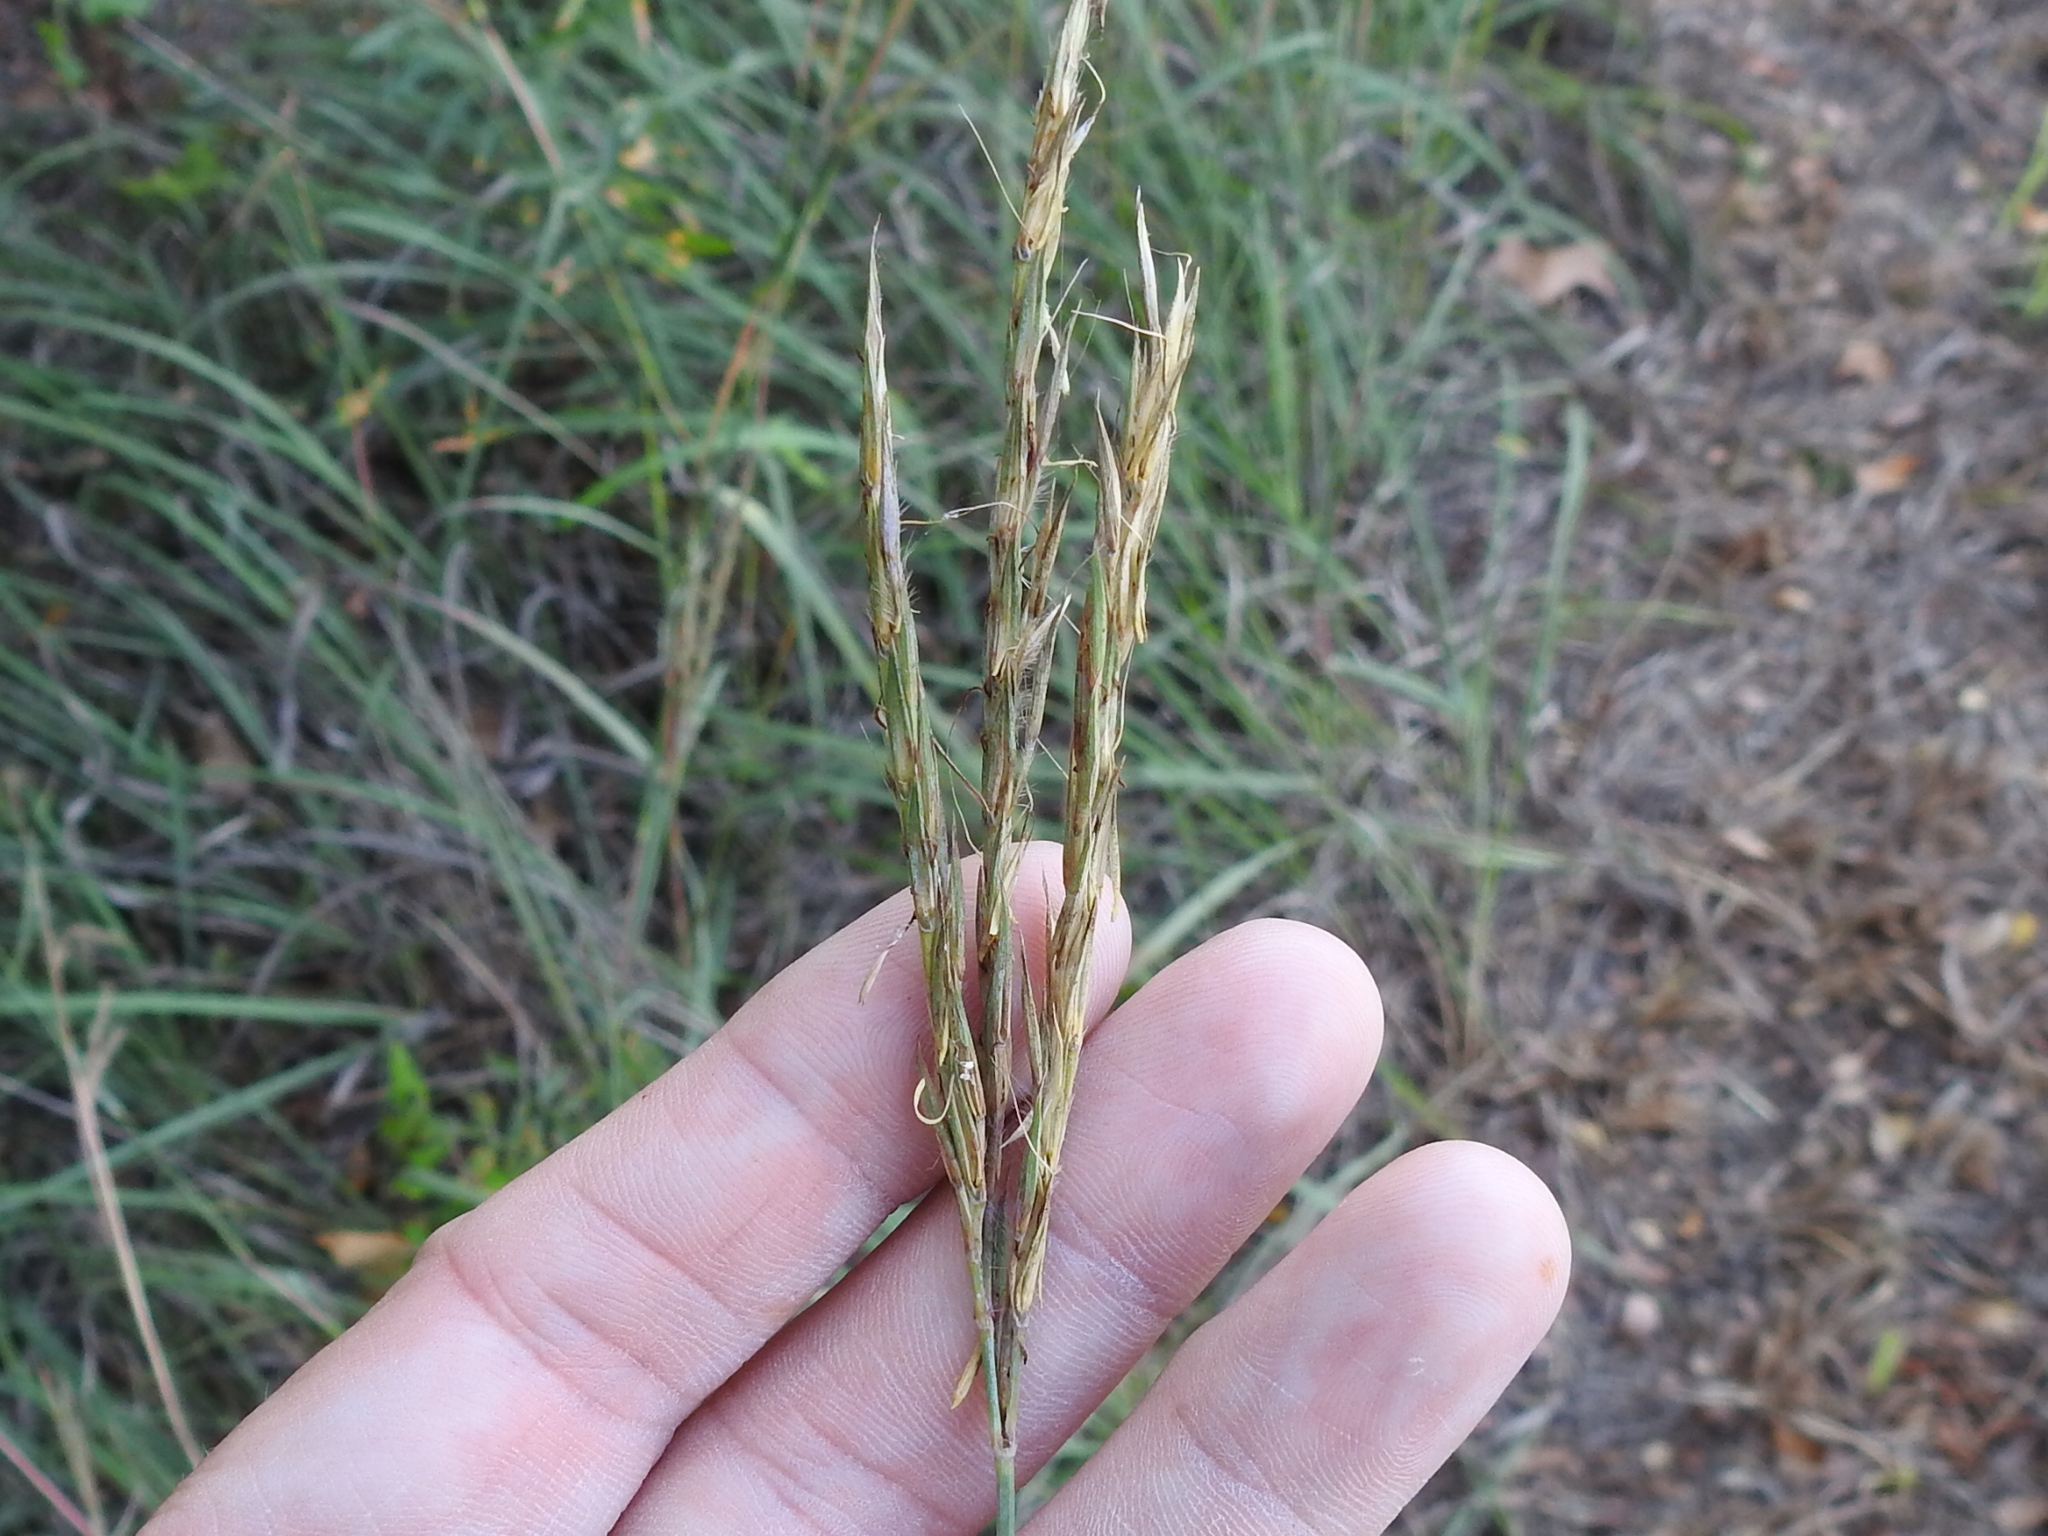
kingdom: Plantae
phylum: Tracheophyta
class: Liliopsida
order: Poales
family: Poaceae
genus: Andropogon
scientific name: Andropogon gerardi
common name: Big bluestem
